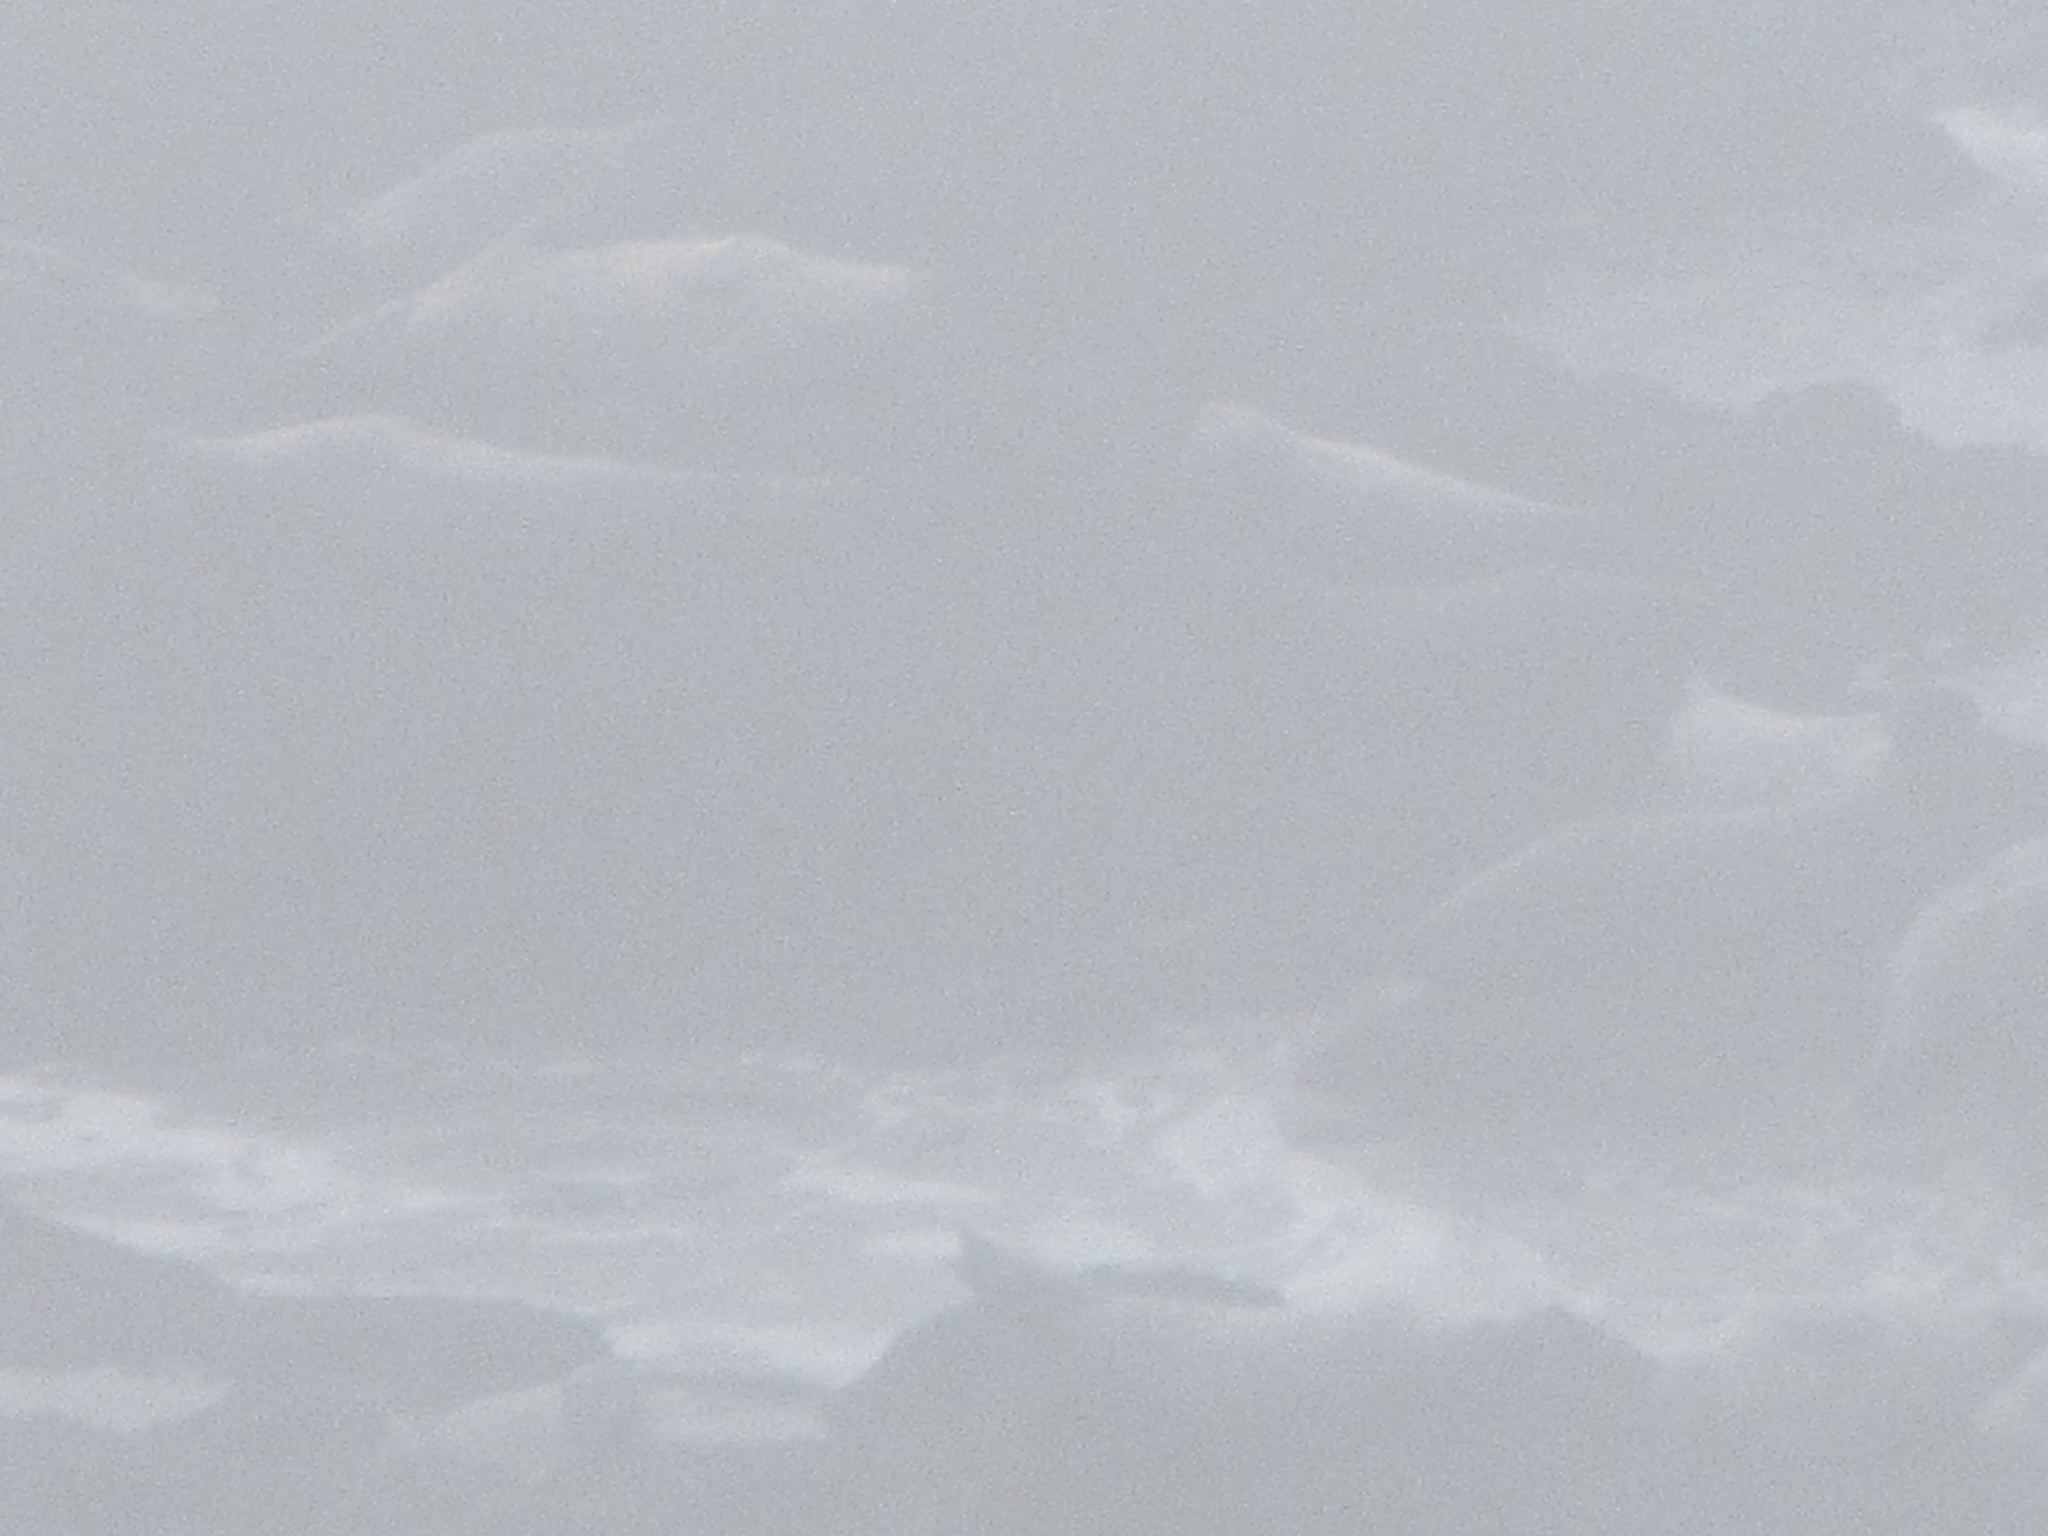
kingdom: Animalia
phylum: Chordata
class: Mammalia
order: Carnivora
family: Phocidae
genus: Phoca
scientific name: Phoca vitulina
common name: Harbor seal
